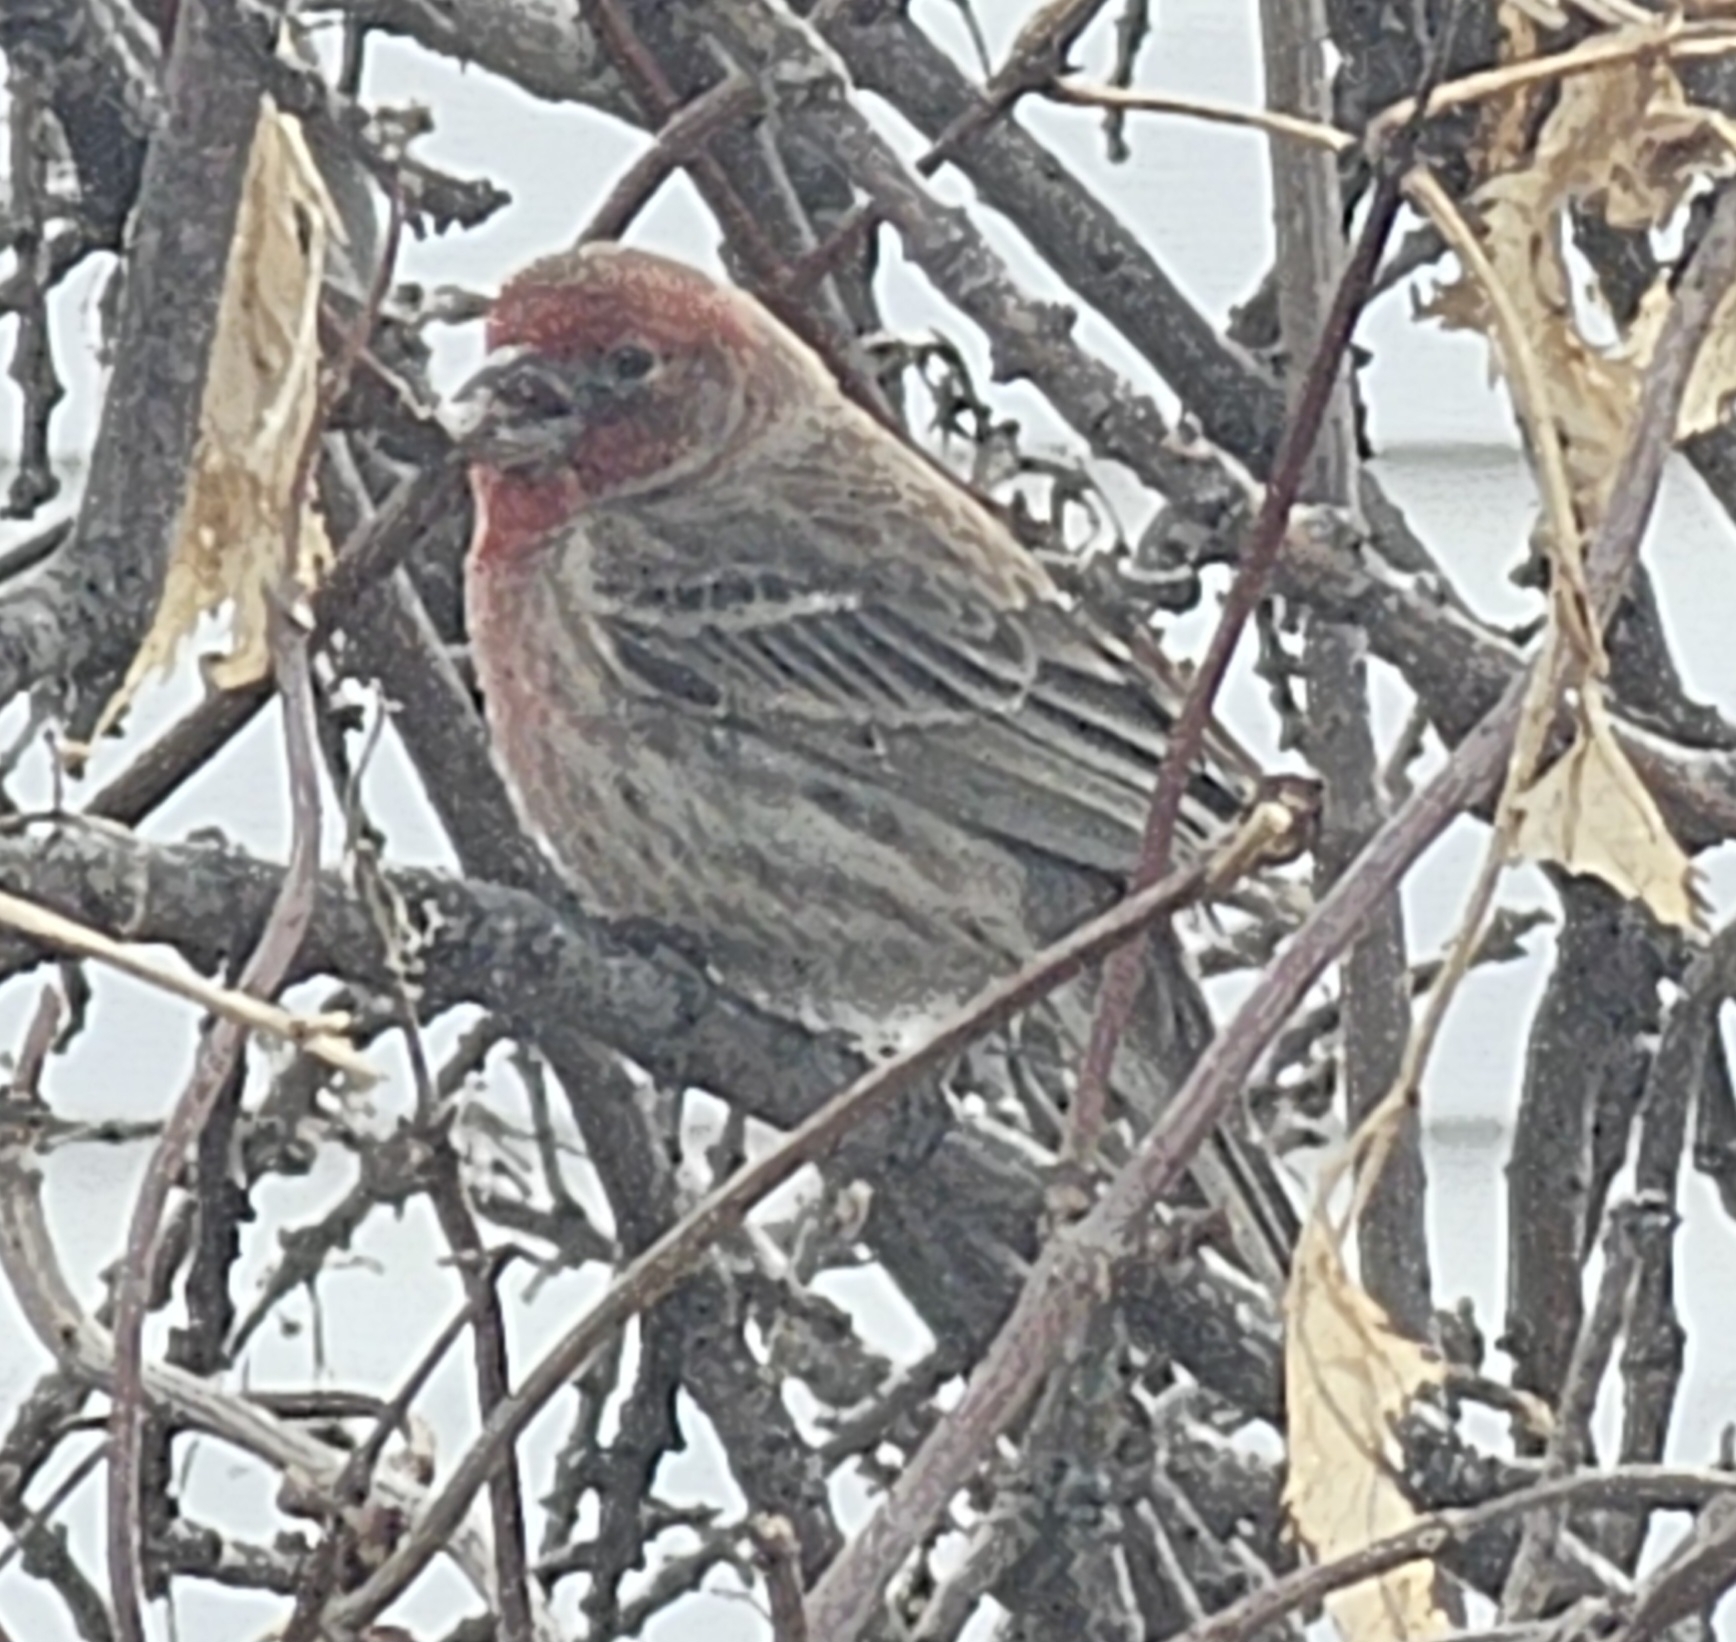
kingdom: Animalia
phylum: Chordata
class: Aves
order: Passeriformes
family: Fringillidae
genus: Haemorhous
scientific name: Haemorhous mexicanus
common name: House finch
